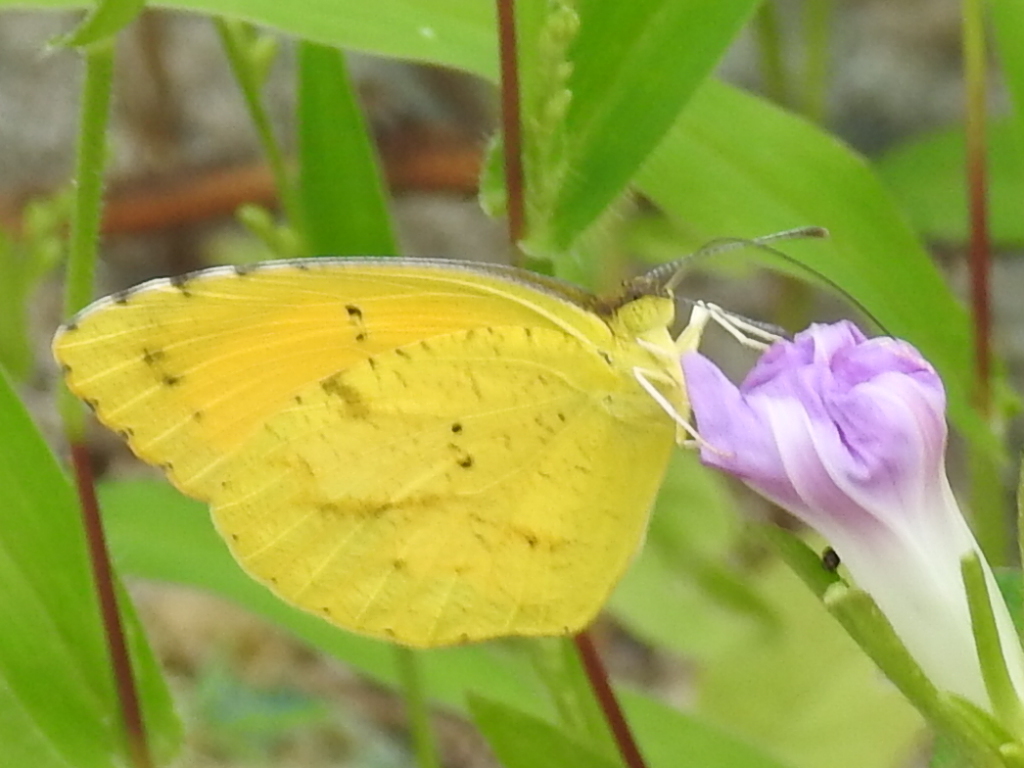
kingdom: Animalia
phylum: Arthropoda
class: Insecta
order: Lepidoptera
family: Pieridae
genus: Abaeis
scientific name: Abaeis nicippe
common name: Sleepy orange
